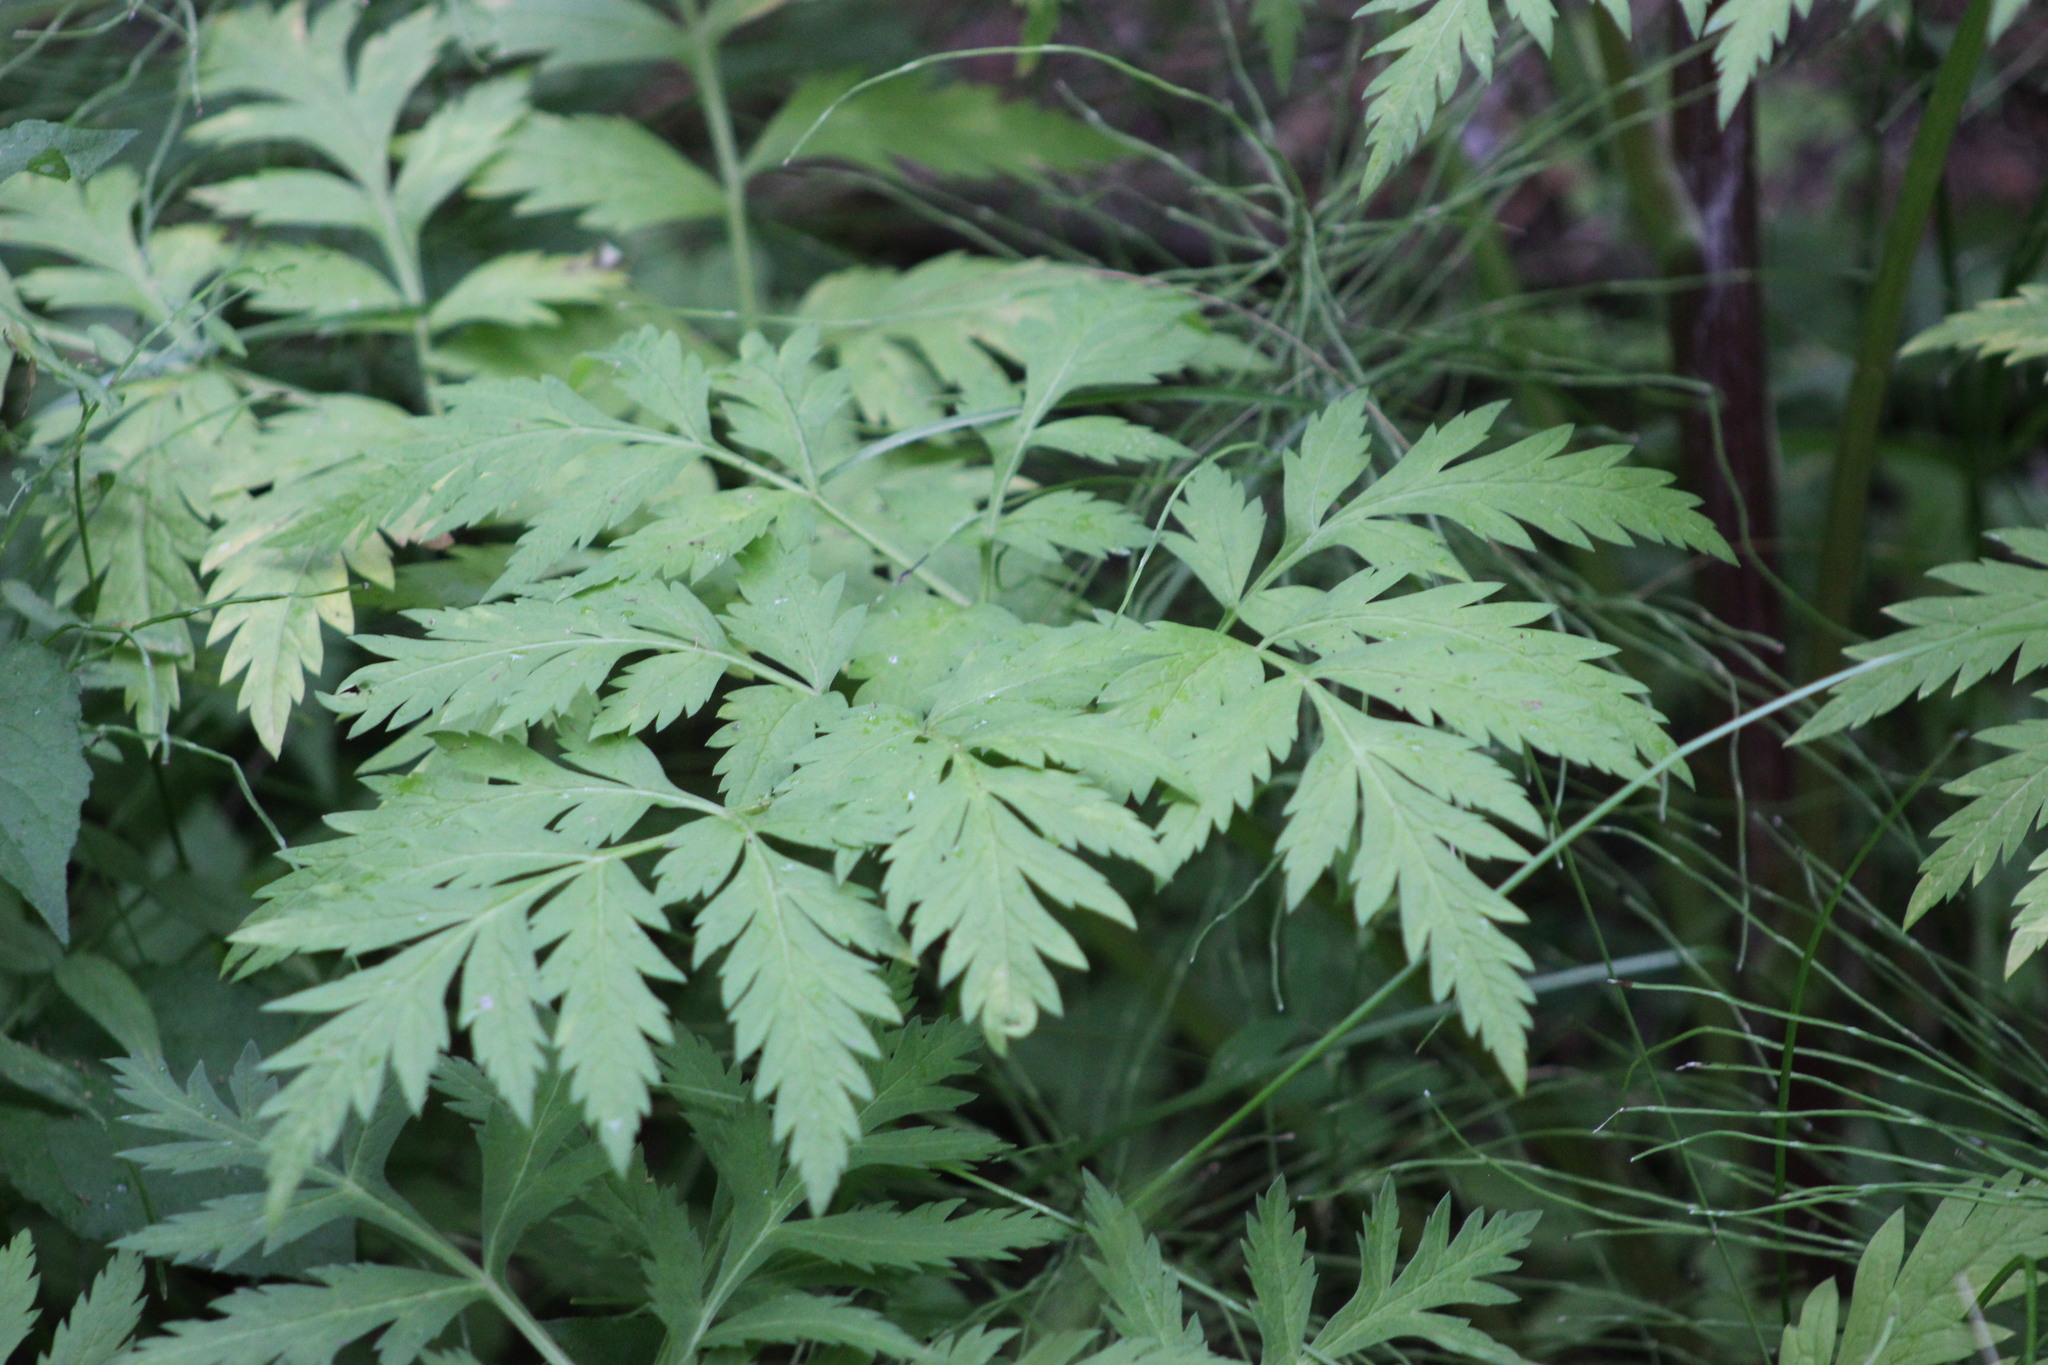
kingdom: Plantae
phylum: Tracheophyta
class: Magnoliopsida
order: Apiales
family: Apiaceae
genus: Pleurospermum
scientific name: Pleurospermum uralense
